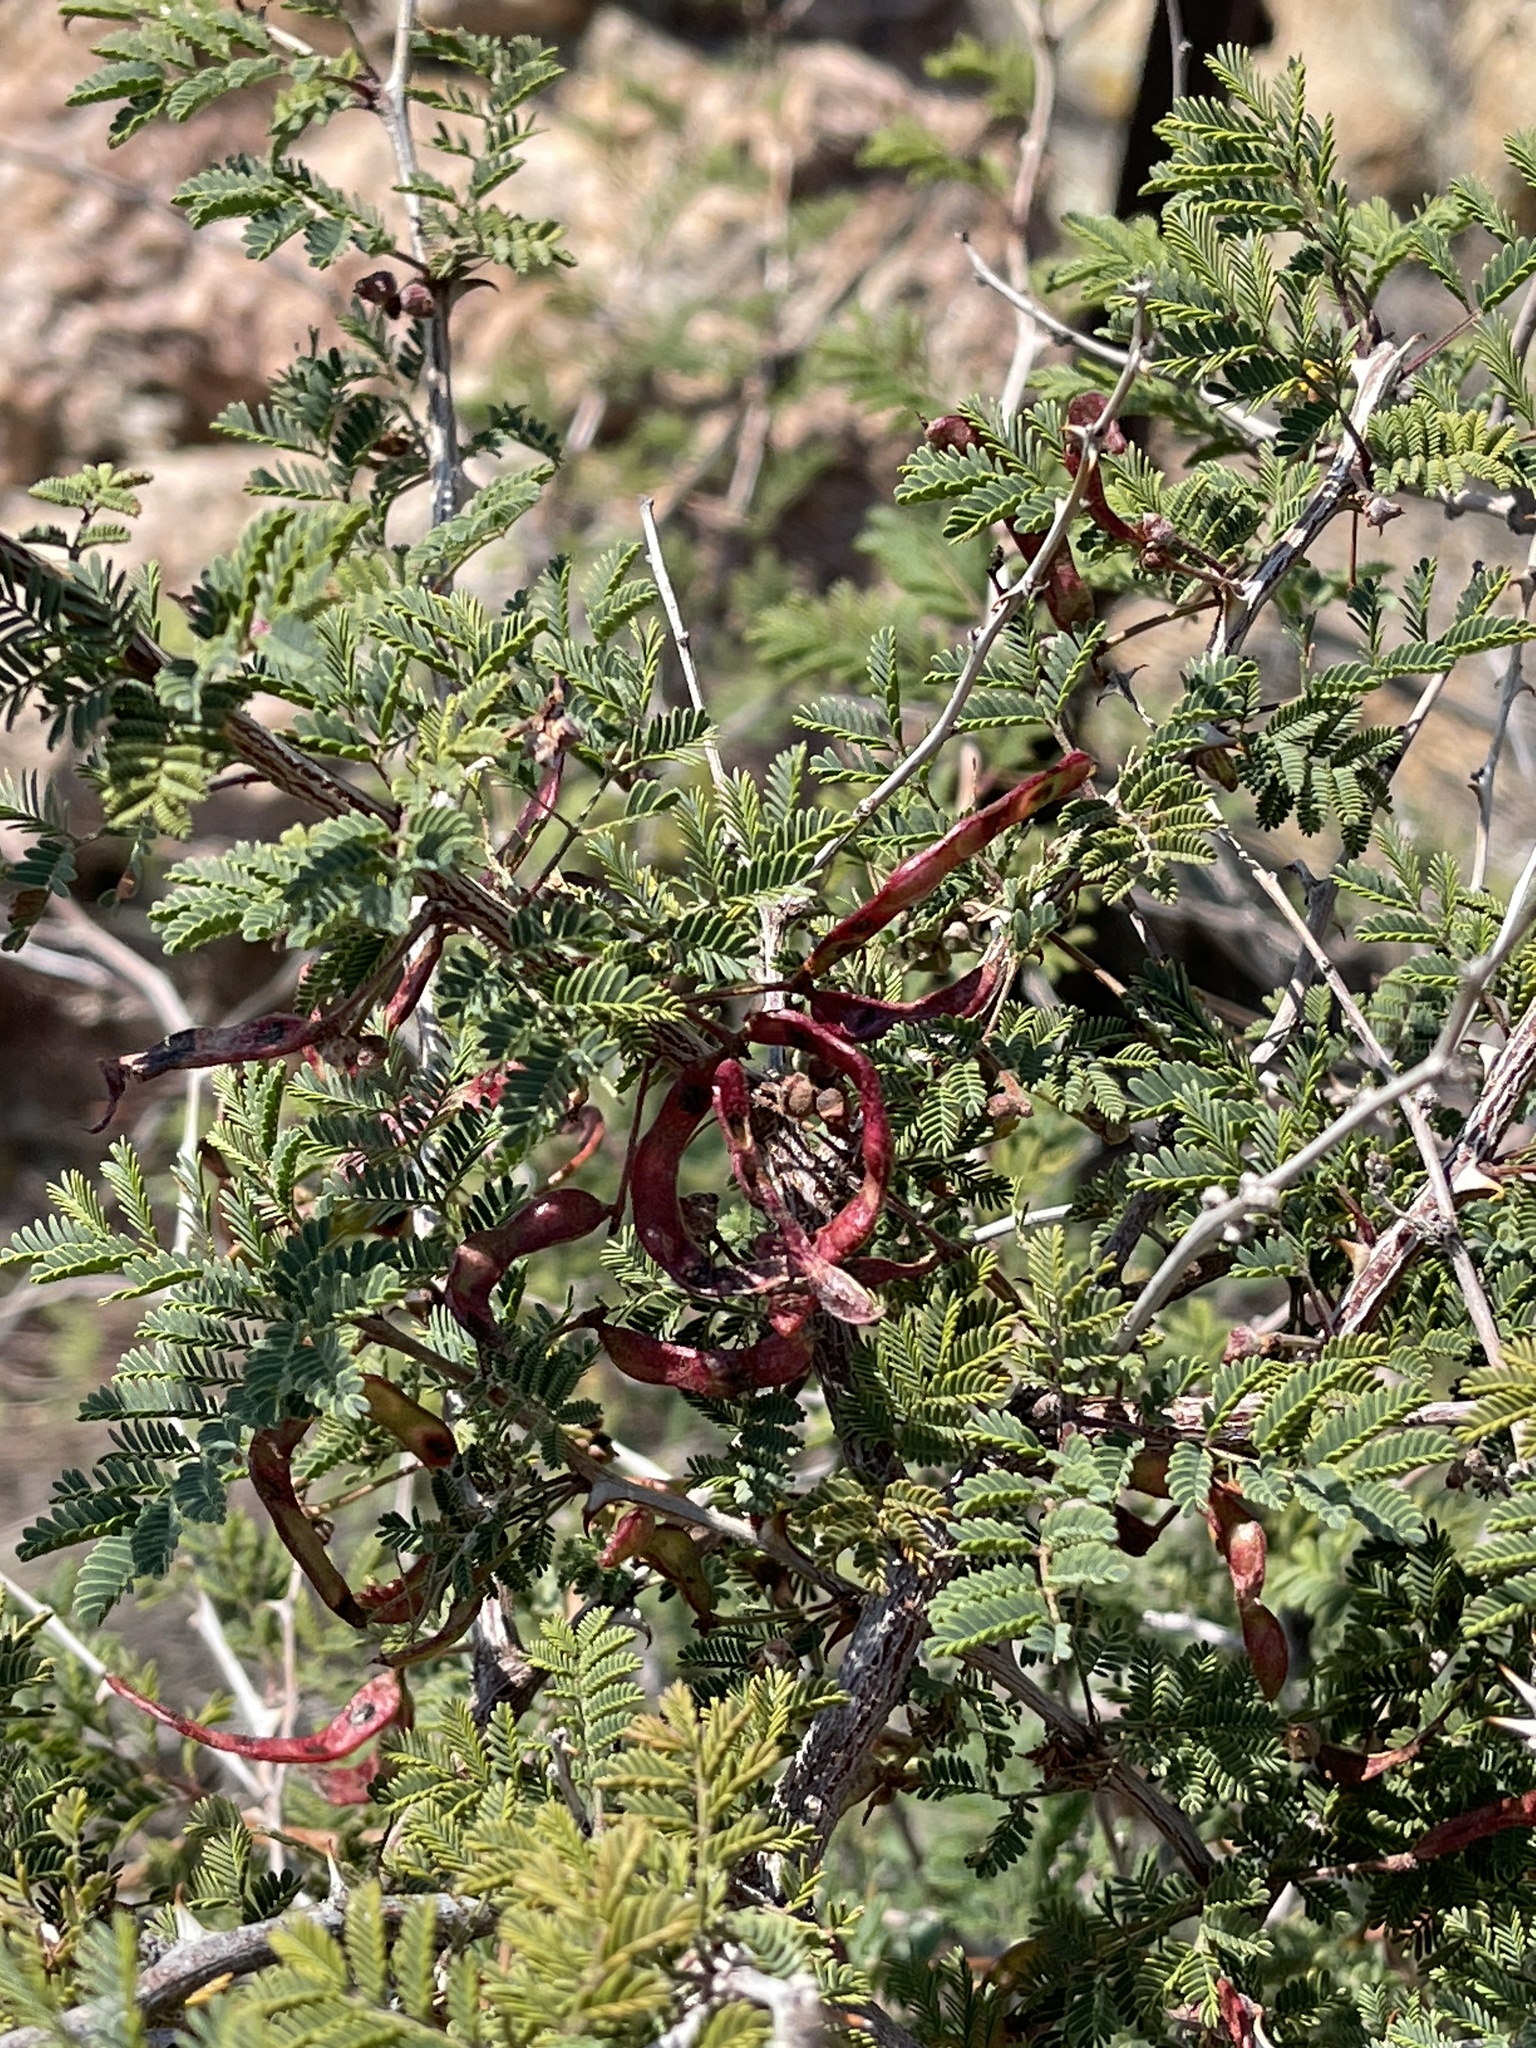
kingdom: Plantae
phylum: Tracheophyta
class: Magnoliopsida
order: Fabales
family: Fabaceae
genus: Mimosa
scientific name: Mimosa aculeaticarpa
